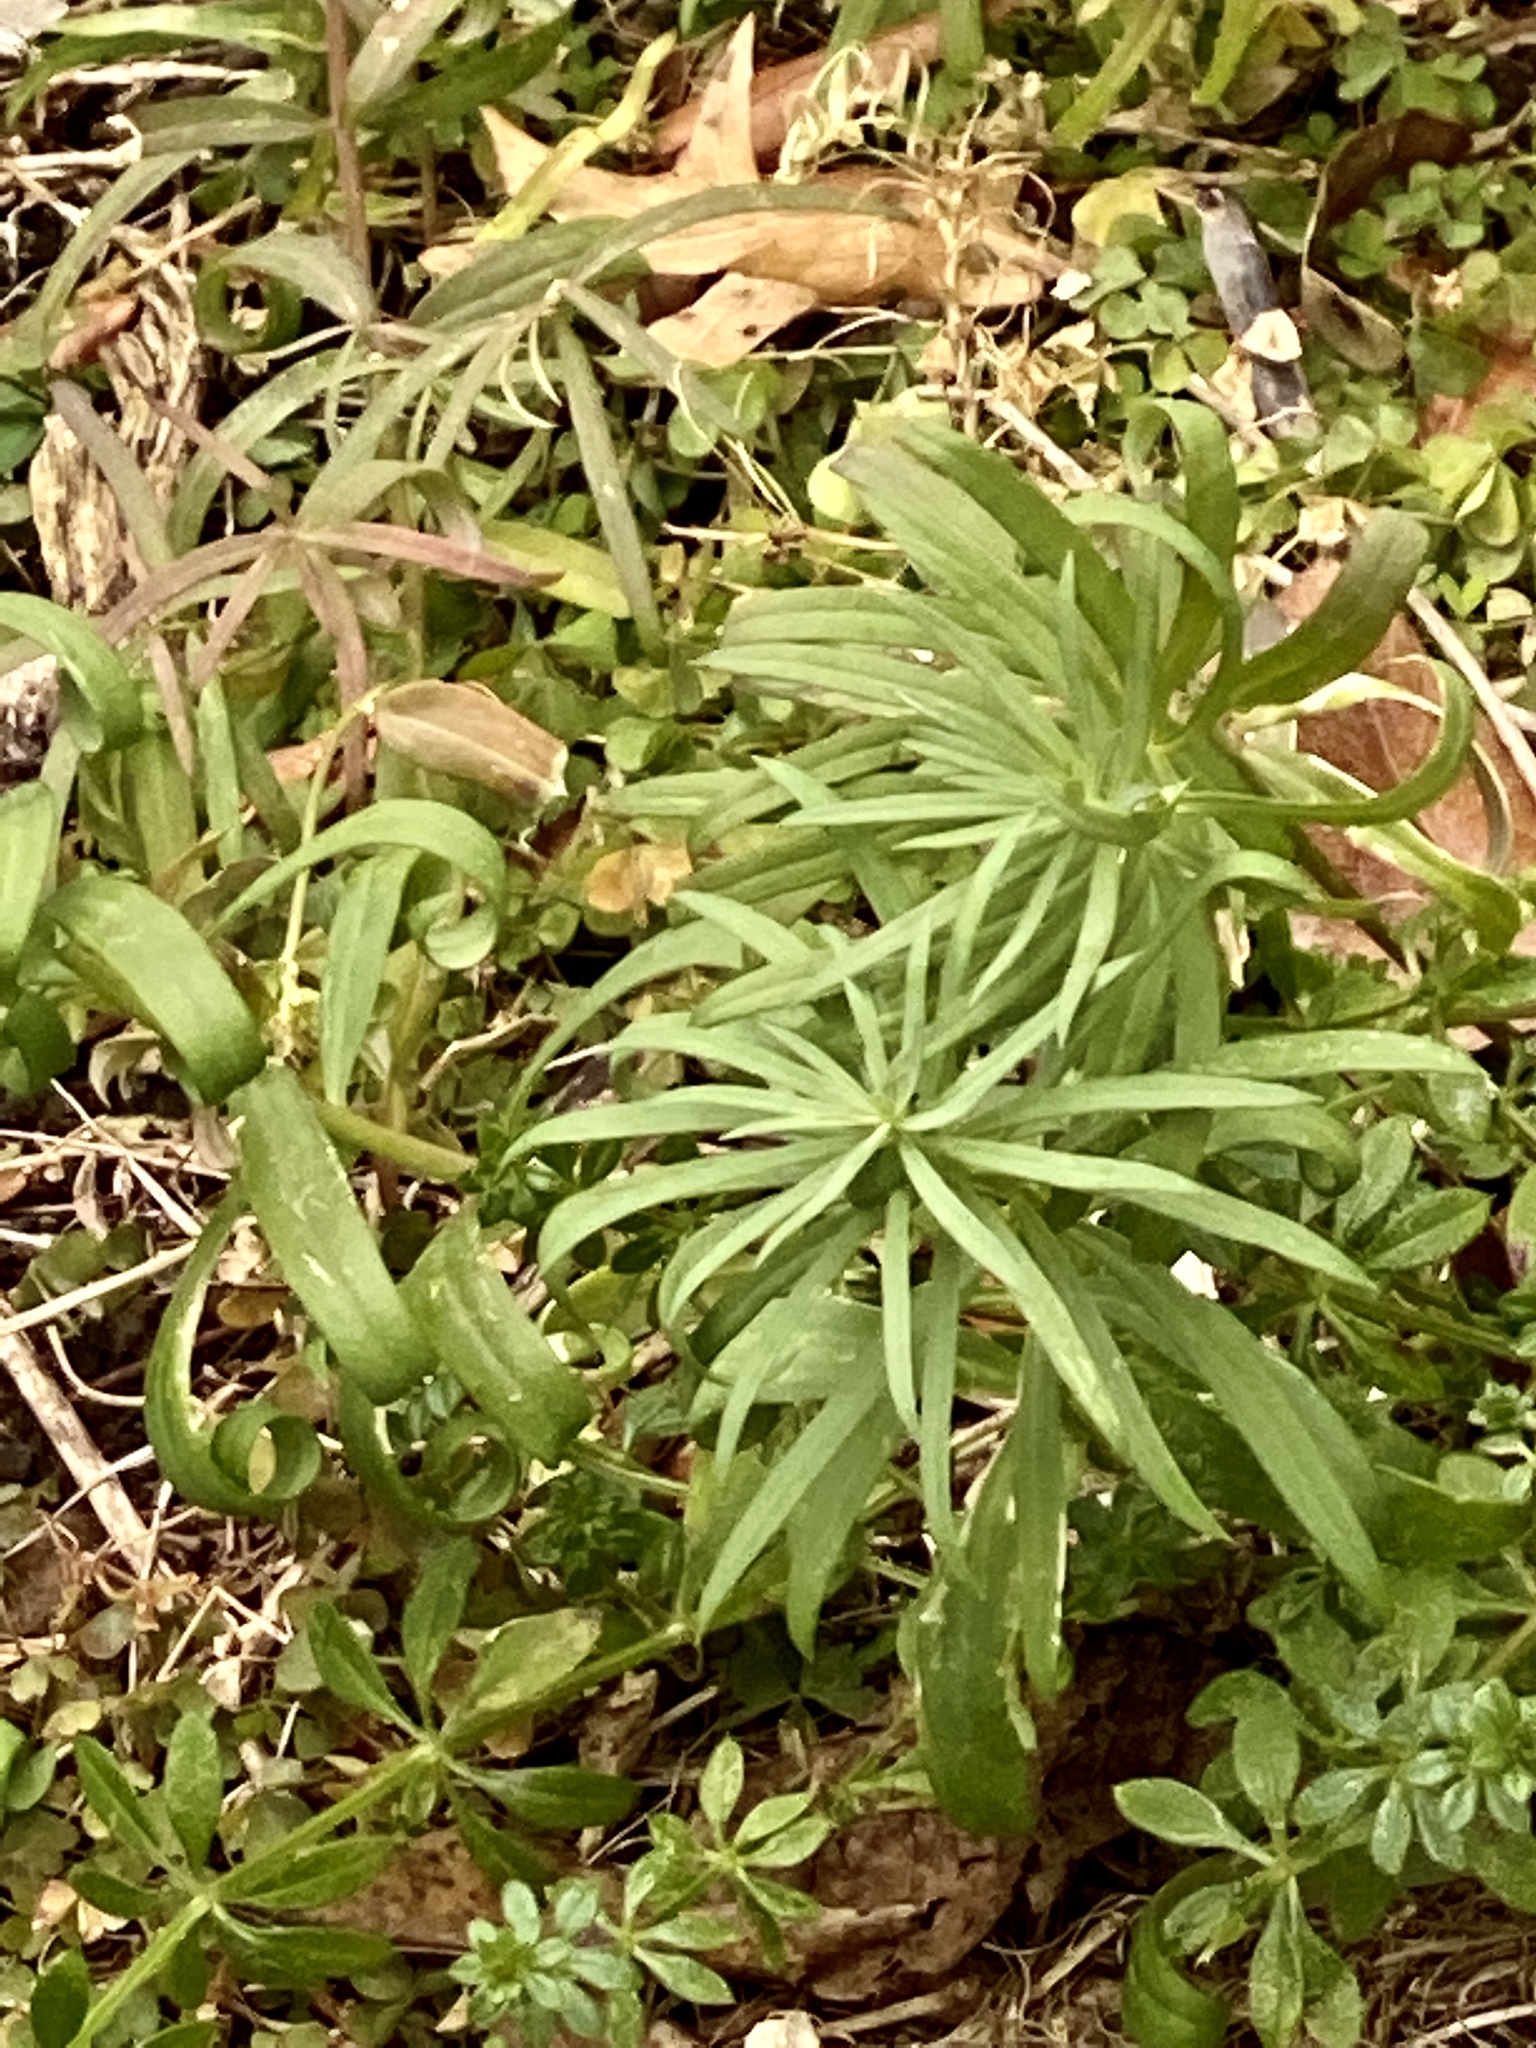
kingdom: Plantae
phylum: Tracheophyta
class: Magnoliopsida
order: Lamiales
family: Plantaginaceae
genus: Linaria
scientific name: Linaria vulgaris
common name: Butter and eggs
